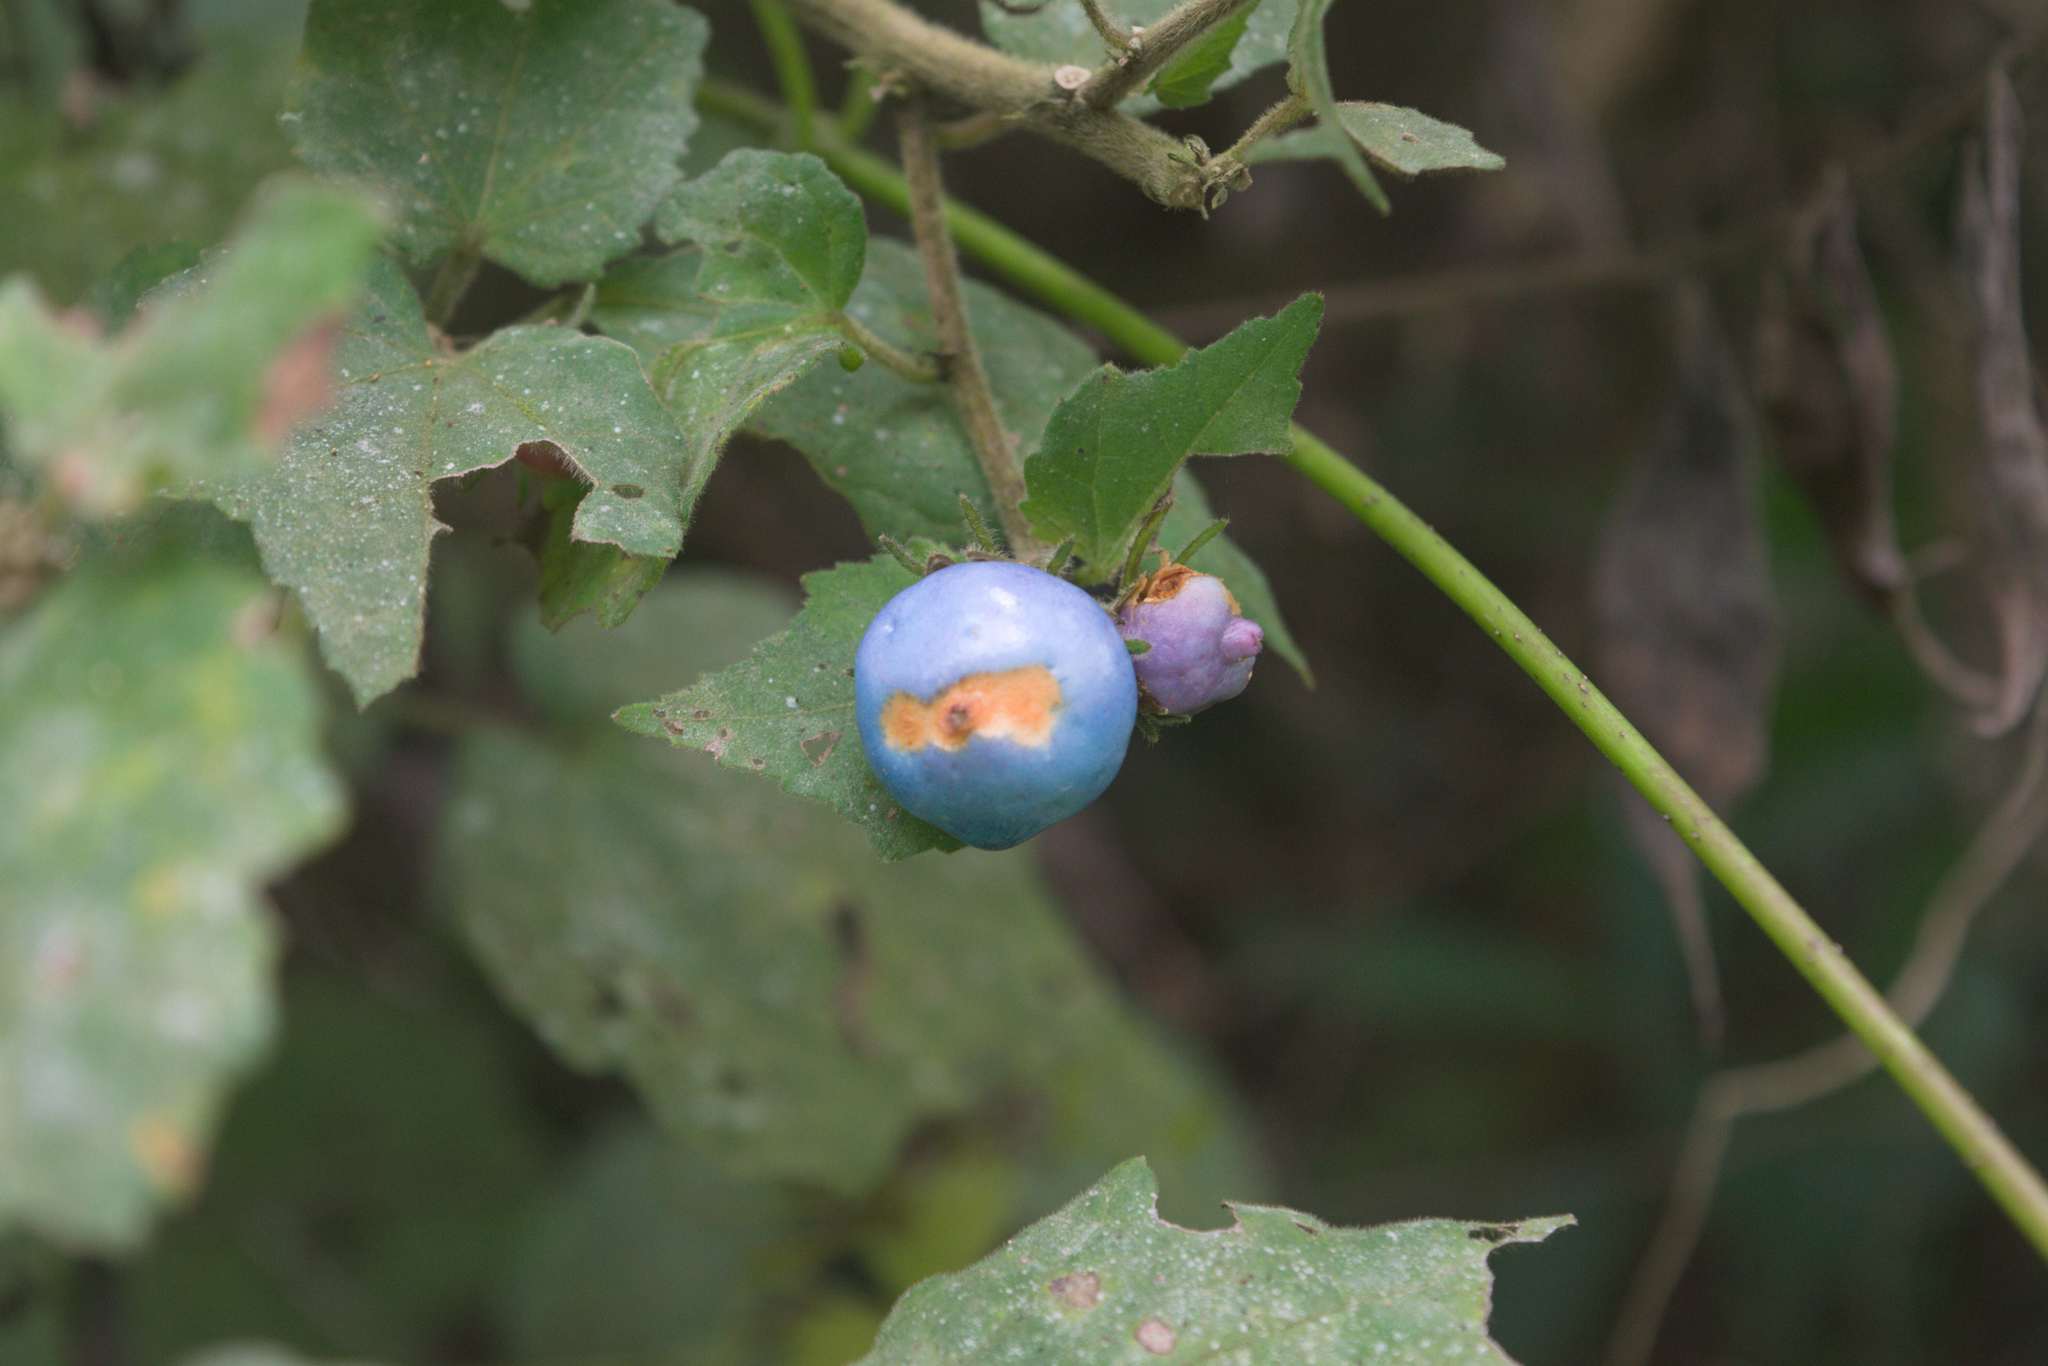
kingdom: Plantae
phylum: Tracheophyta
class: Magnoliopsida
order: Malvales
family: Malvaceae
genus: Malvaviscus
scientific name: Malvaviscus arboreus
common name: Wax mallow
